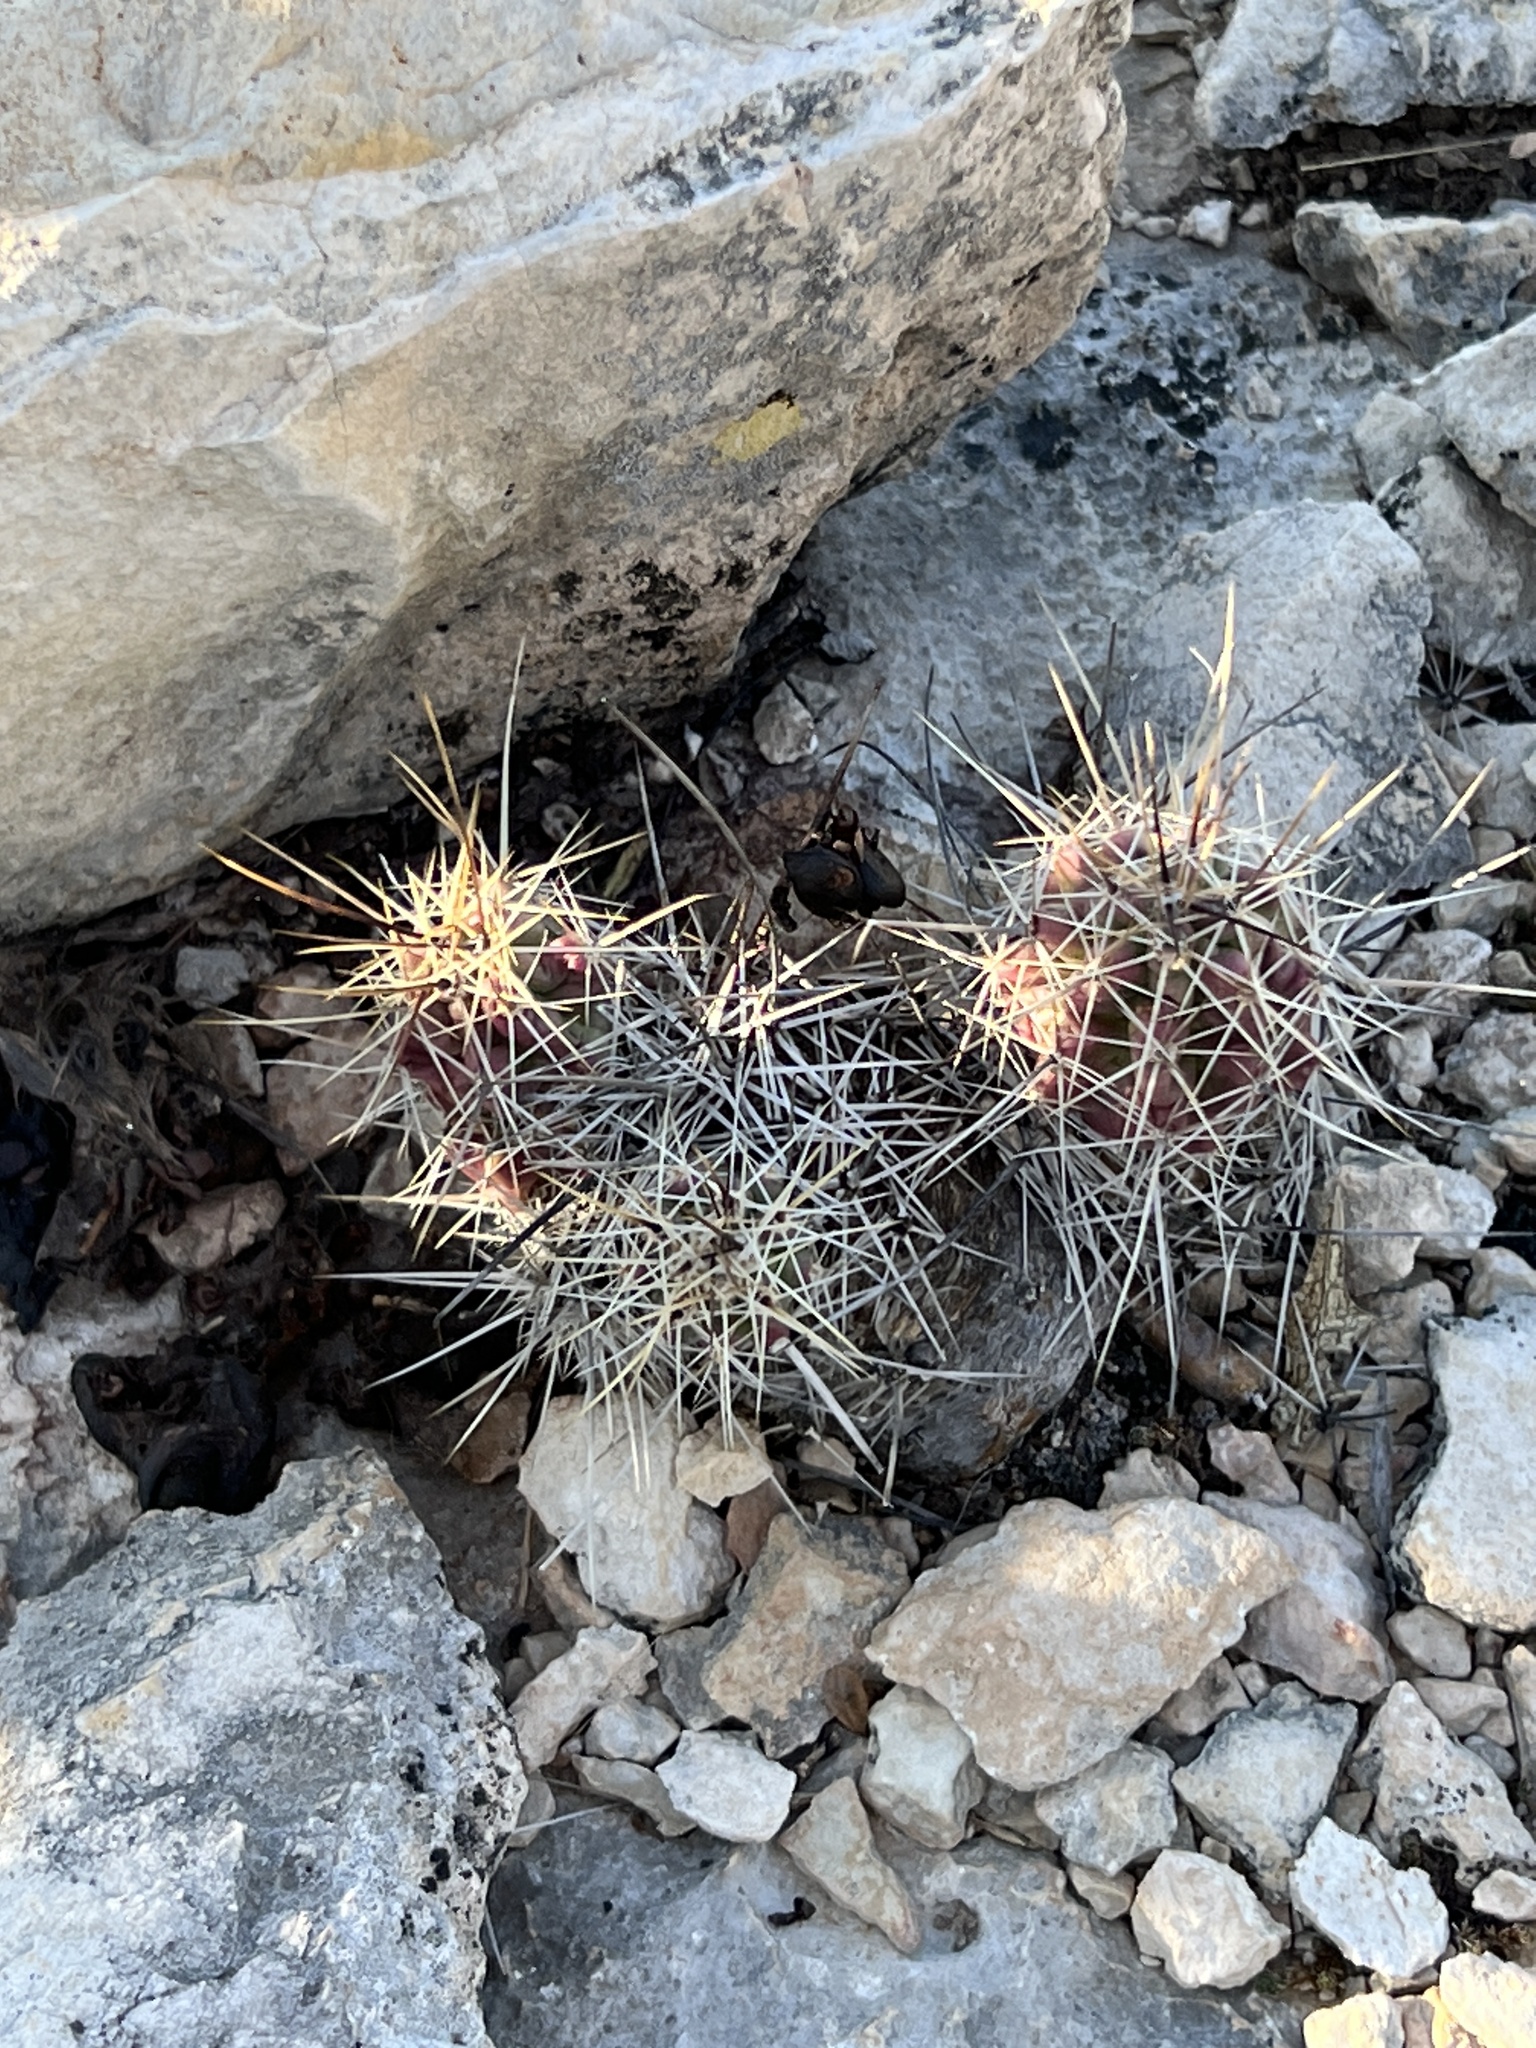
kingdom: Plantae
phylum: Tracheophyta
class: Magnoliopsida
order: Caryophyllales
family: Cactaceae
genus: Echinocereus
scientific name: Echinocereus enneacanthus
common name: Pitaya
